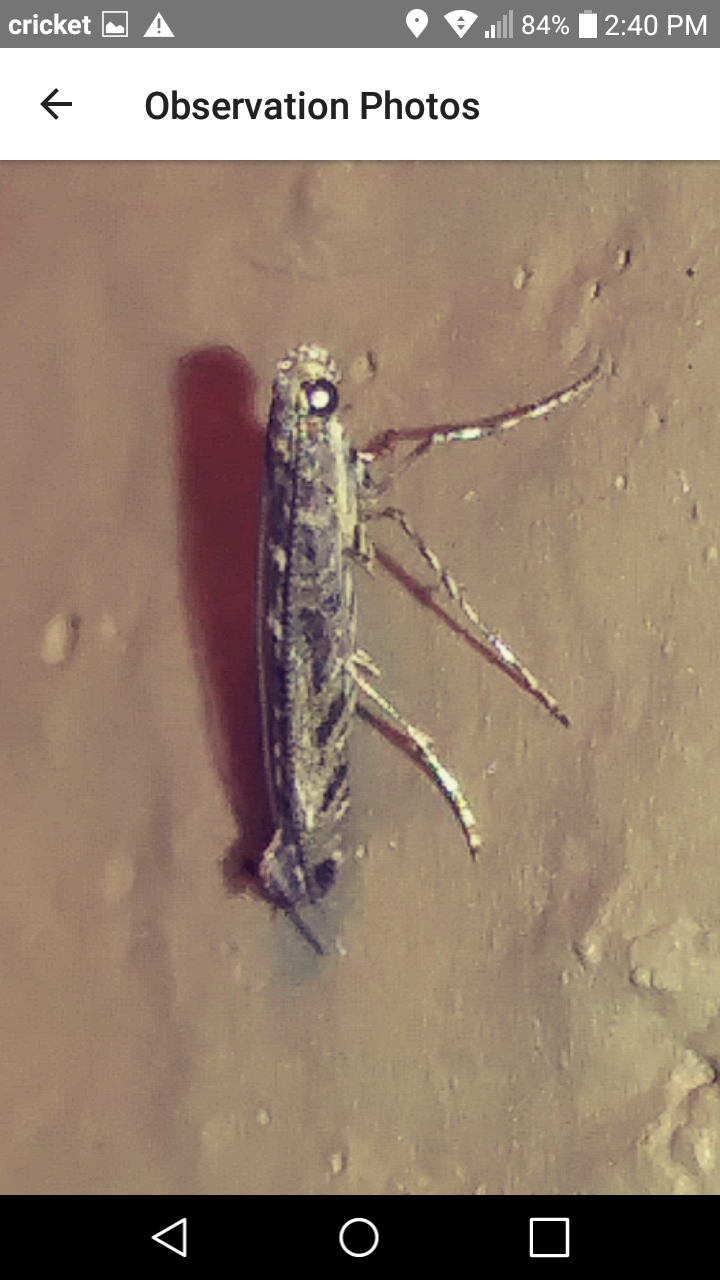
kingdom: Animalia
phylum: Arthropoda
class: Insecta
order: Lepidoptera
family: Gracillariidae
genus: Neurobathra
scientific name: Neurobathra strigifinitella
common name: Finite-channeled leafminer moth
